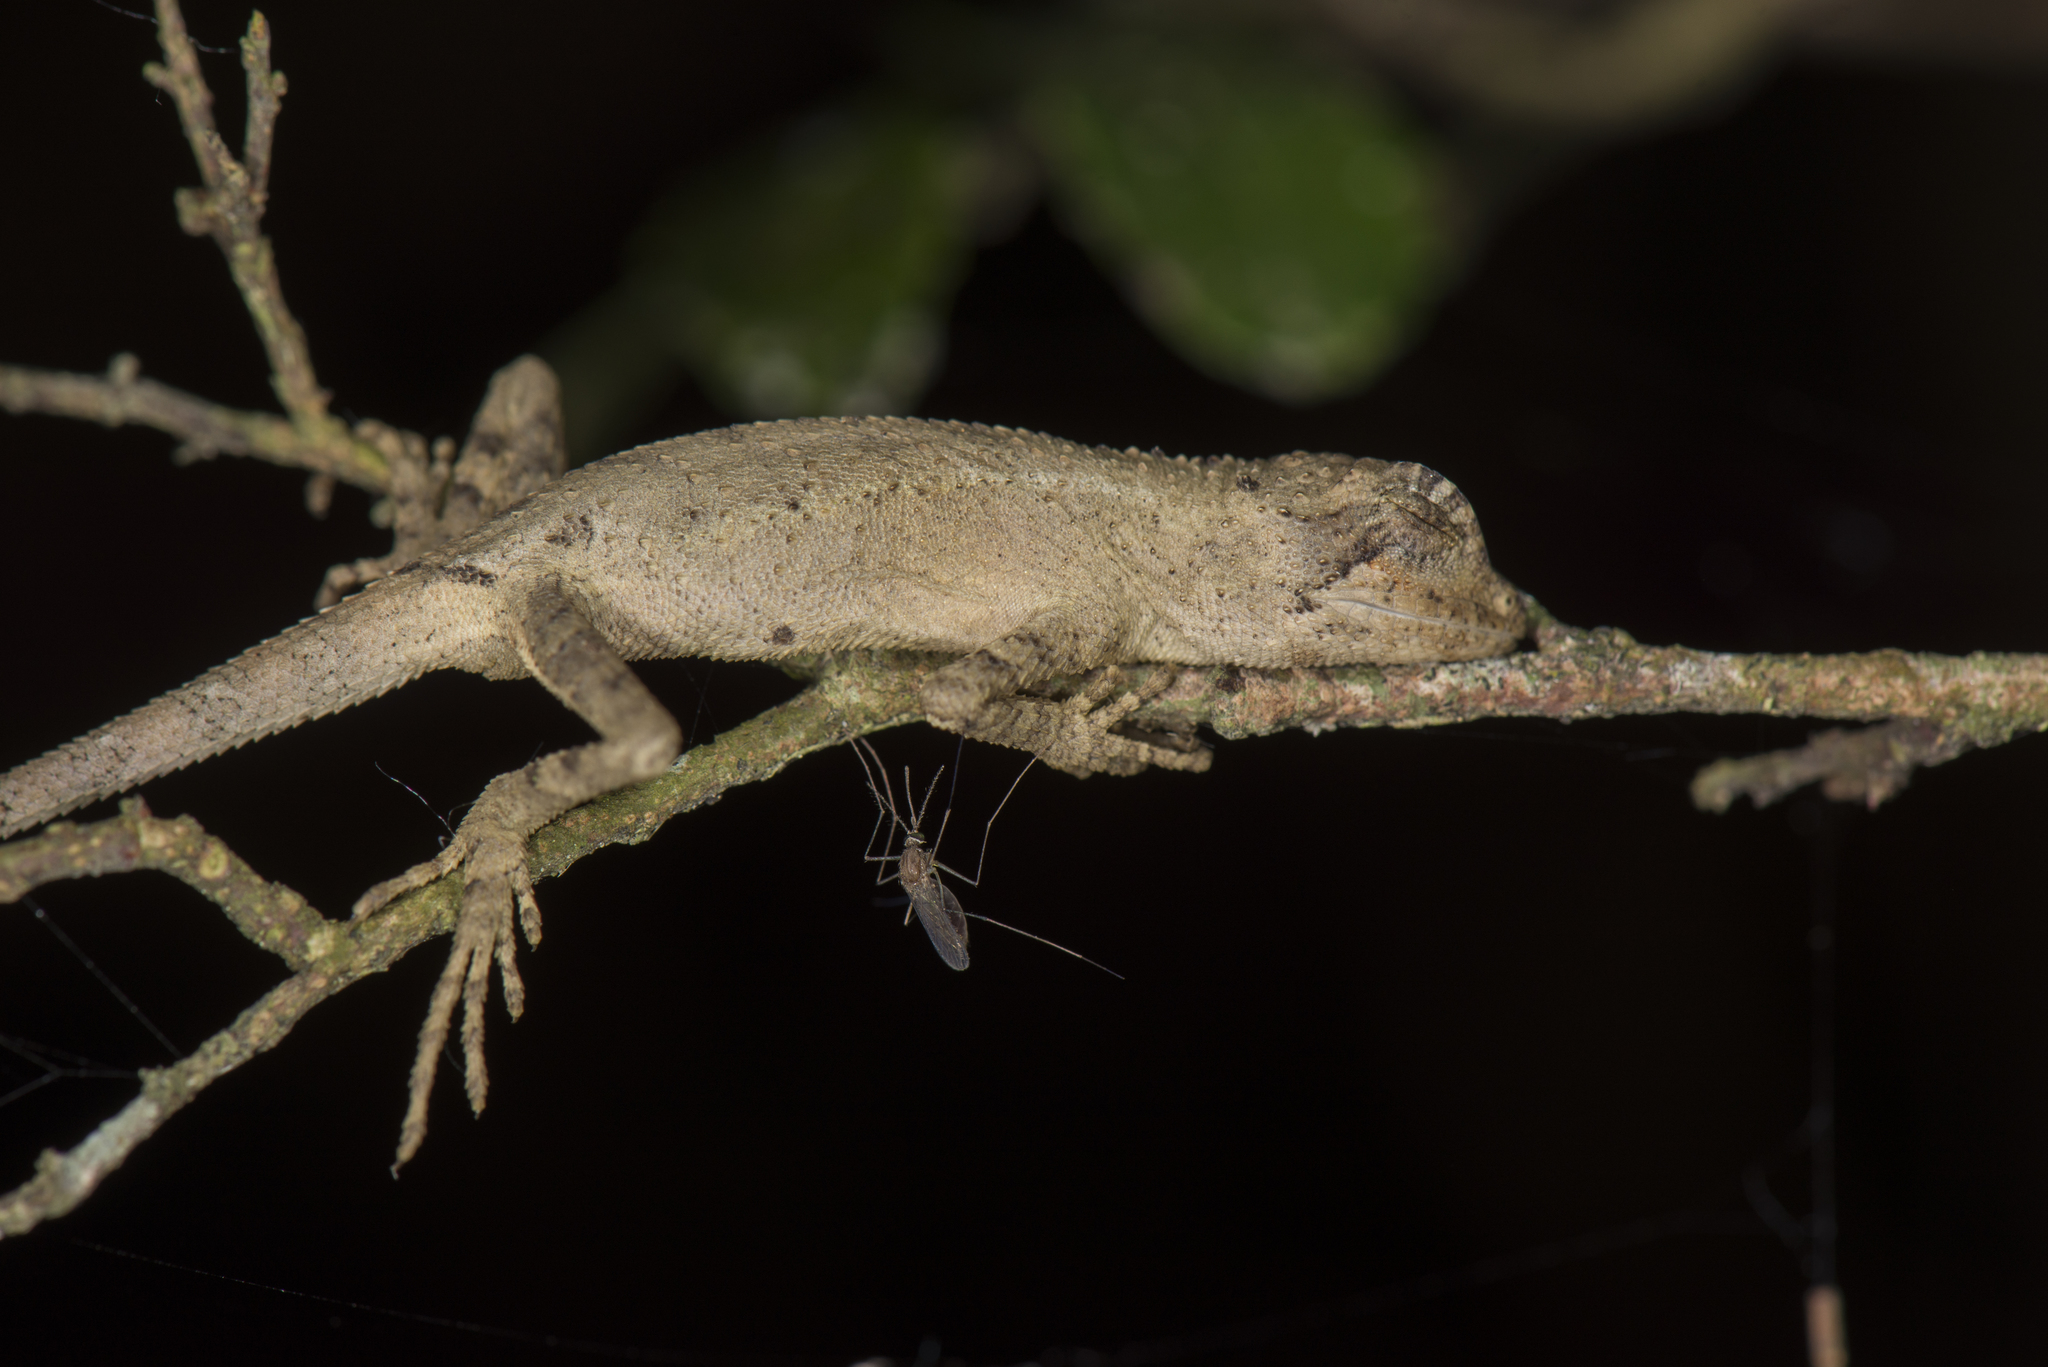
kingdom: Animalia
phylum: Chordata
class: Squamata
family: Agamidae
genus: Diploderma
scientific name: Diploderma swinhonis
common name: Taiwan japalure
